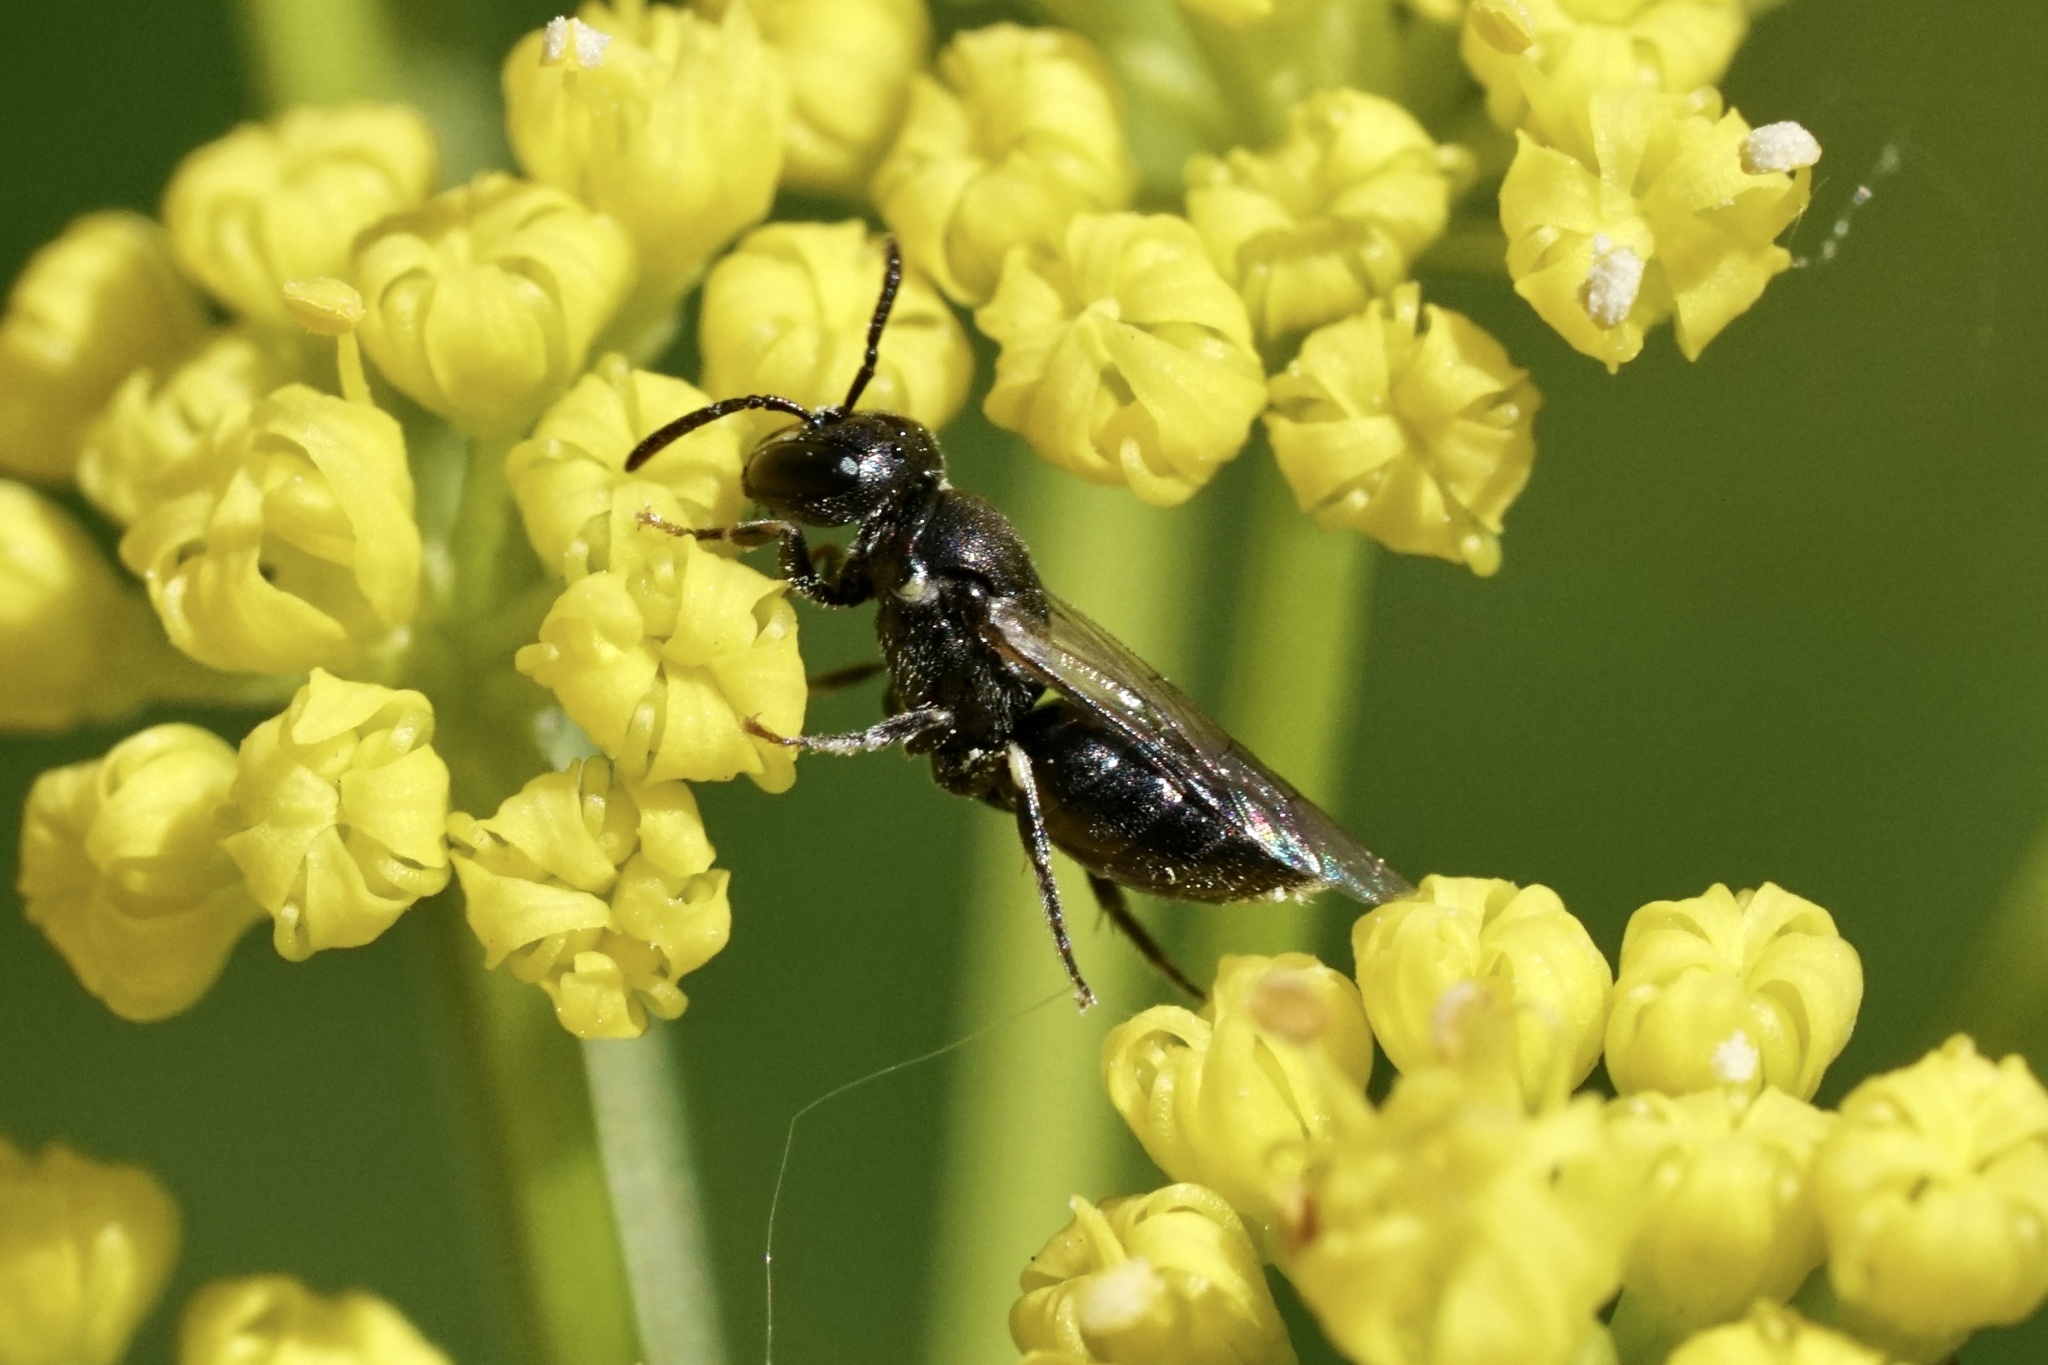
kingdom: Animalia
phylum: Arthropoda
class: Insecta
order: Hymenoptera
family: Colletidae
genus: Hylaeus
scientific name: Hylaeus mesillae
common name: Mesilla masked bee
